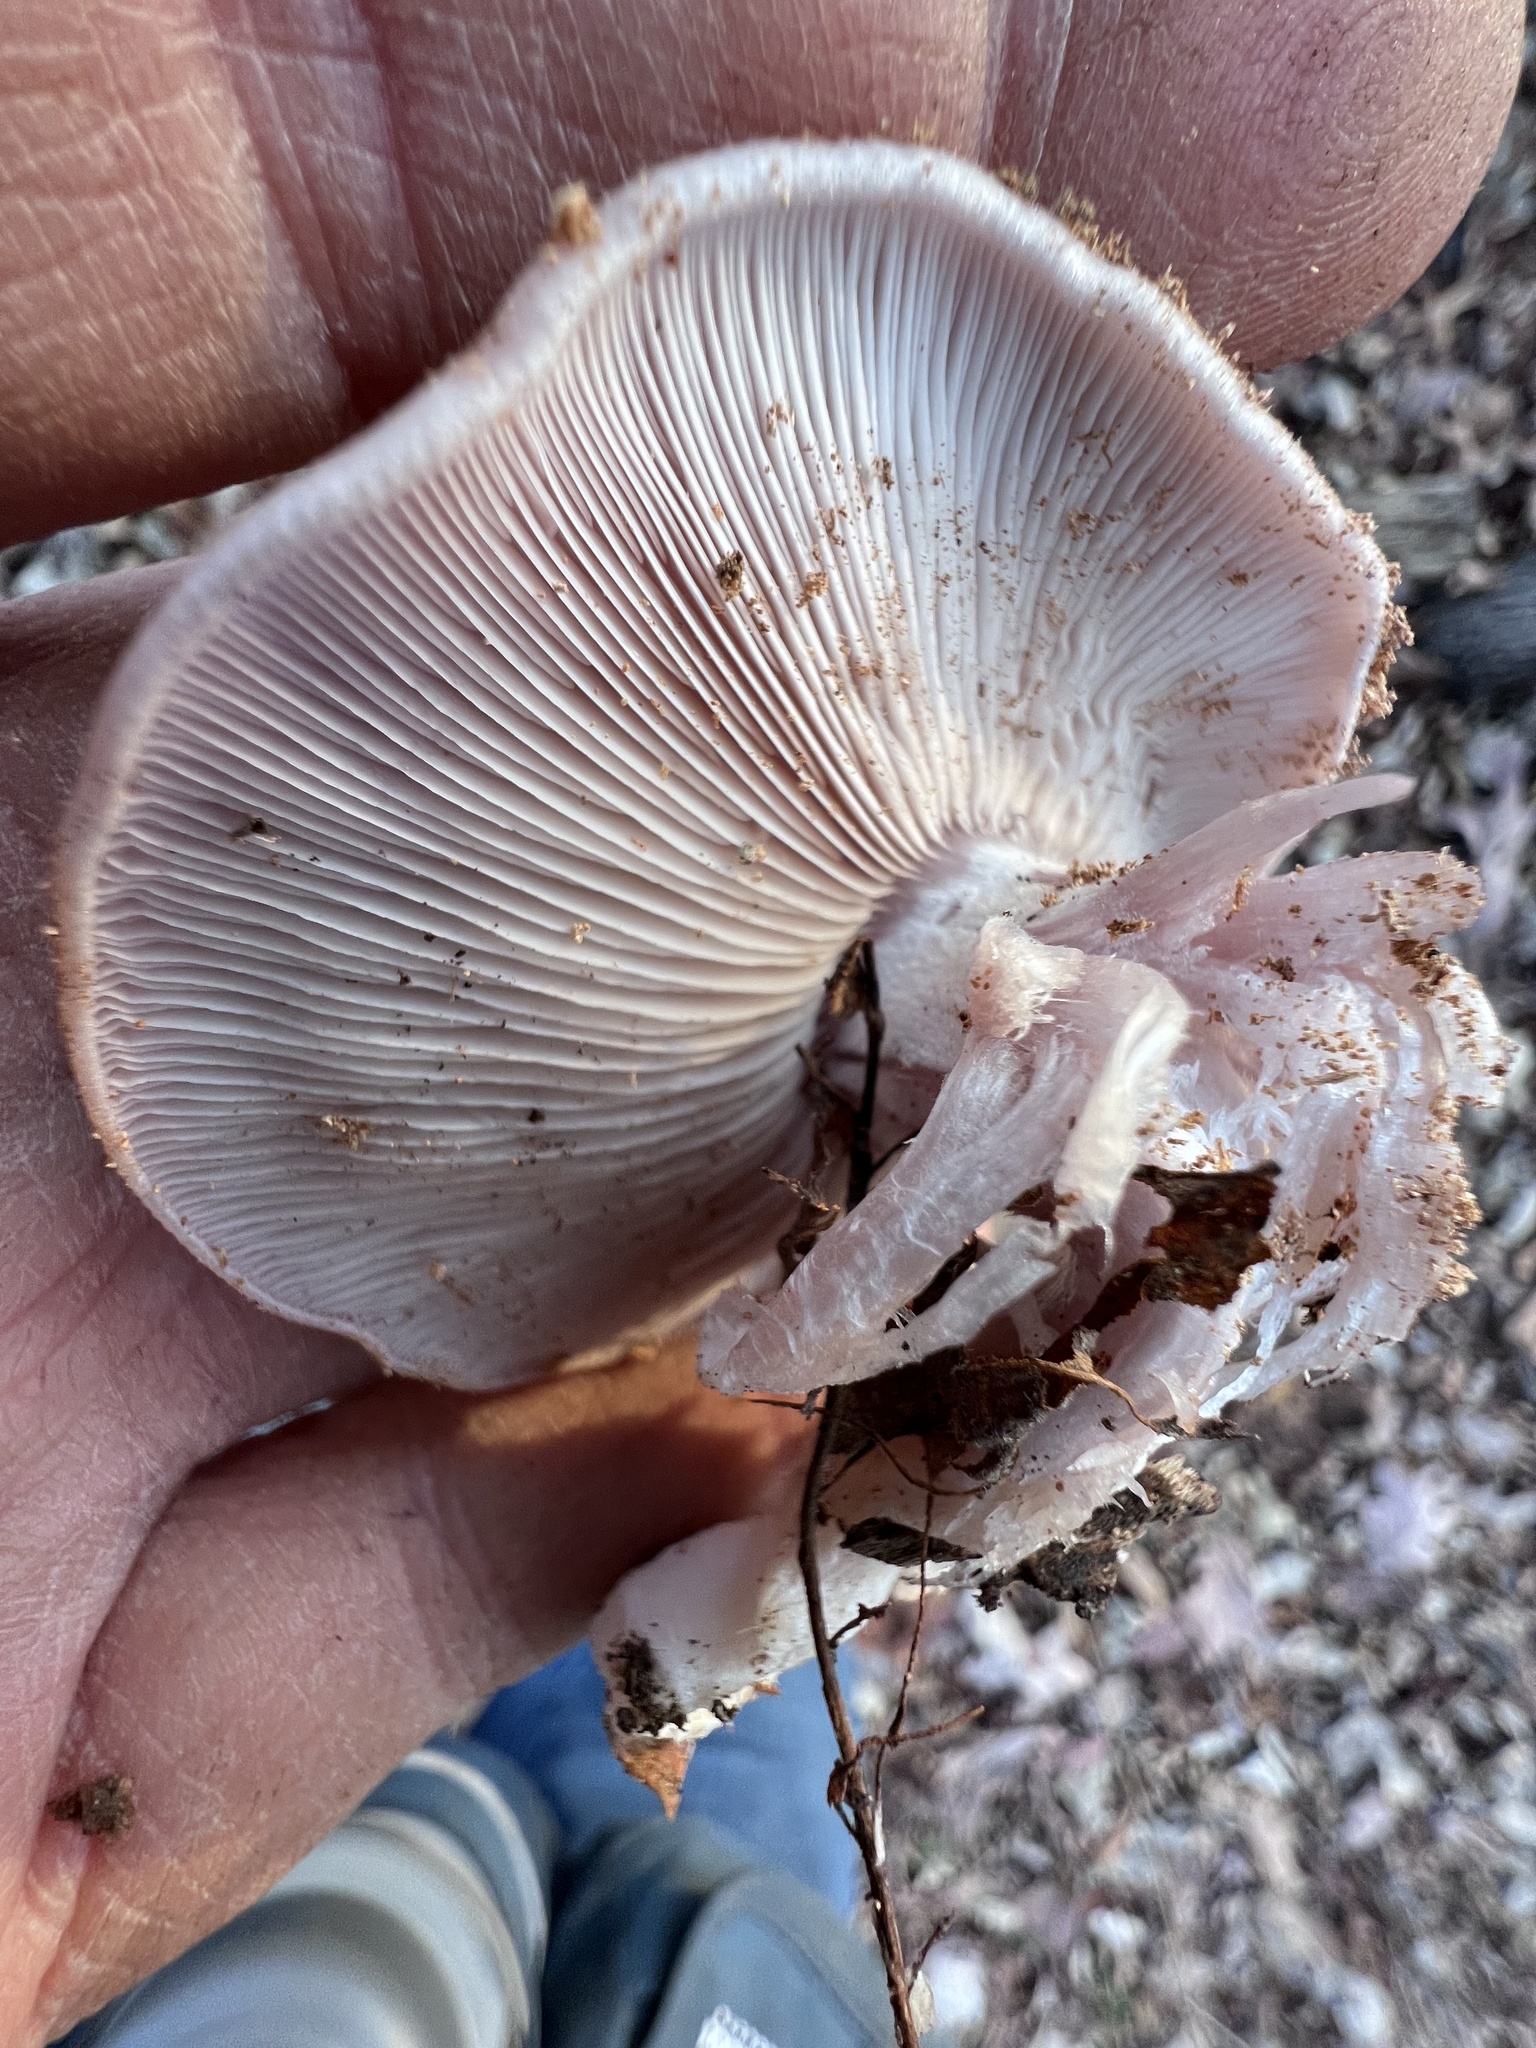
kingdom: Fungi
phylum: Basidiomycota
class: Agaricomycetes
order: Agaricales
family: Tricholomataceae
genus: Collybia
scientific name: Collybia
